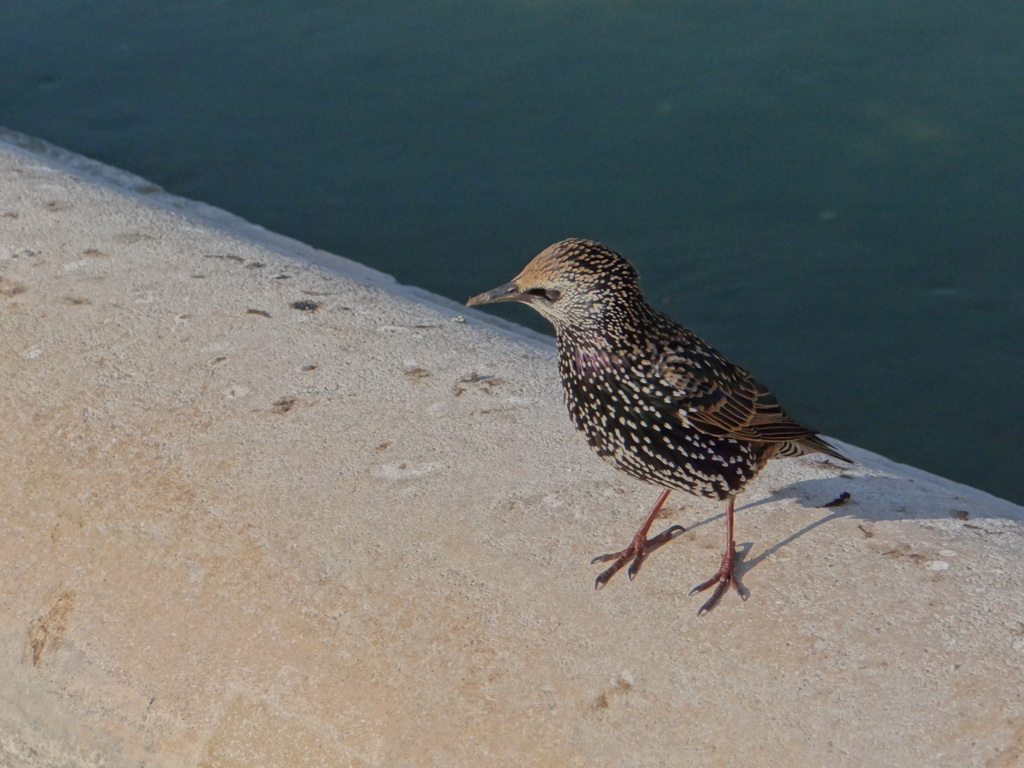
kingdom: Animalia
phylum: Chordata
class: Aves
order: Passeriformes
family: Sturnidae
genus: Sturnus
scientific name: Sturnus vulgaris
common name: Common starling
